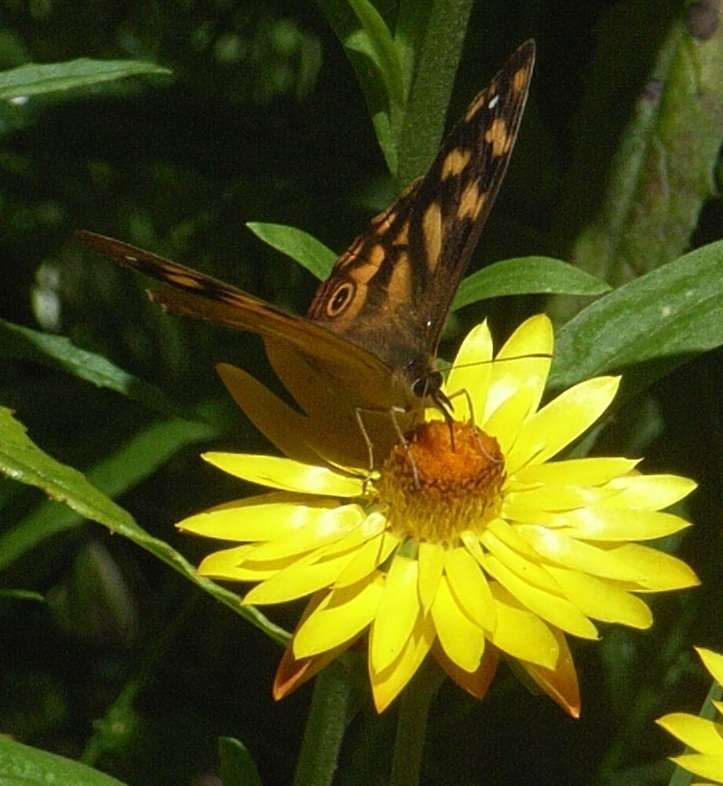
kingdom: Animalia
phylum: Arthropoda
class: Insecta
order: Lepidoptera
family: Nymphalidae
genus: Heteronympha
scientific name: Heteronympha solandri
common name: Solander's brown
